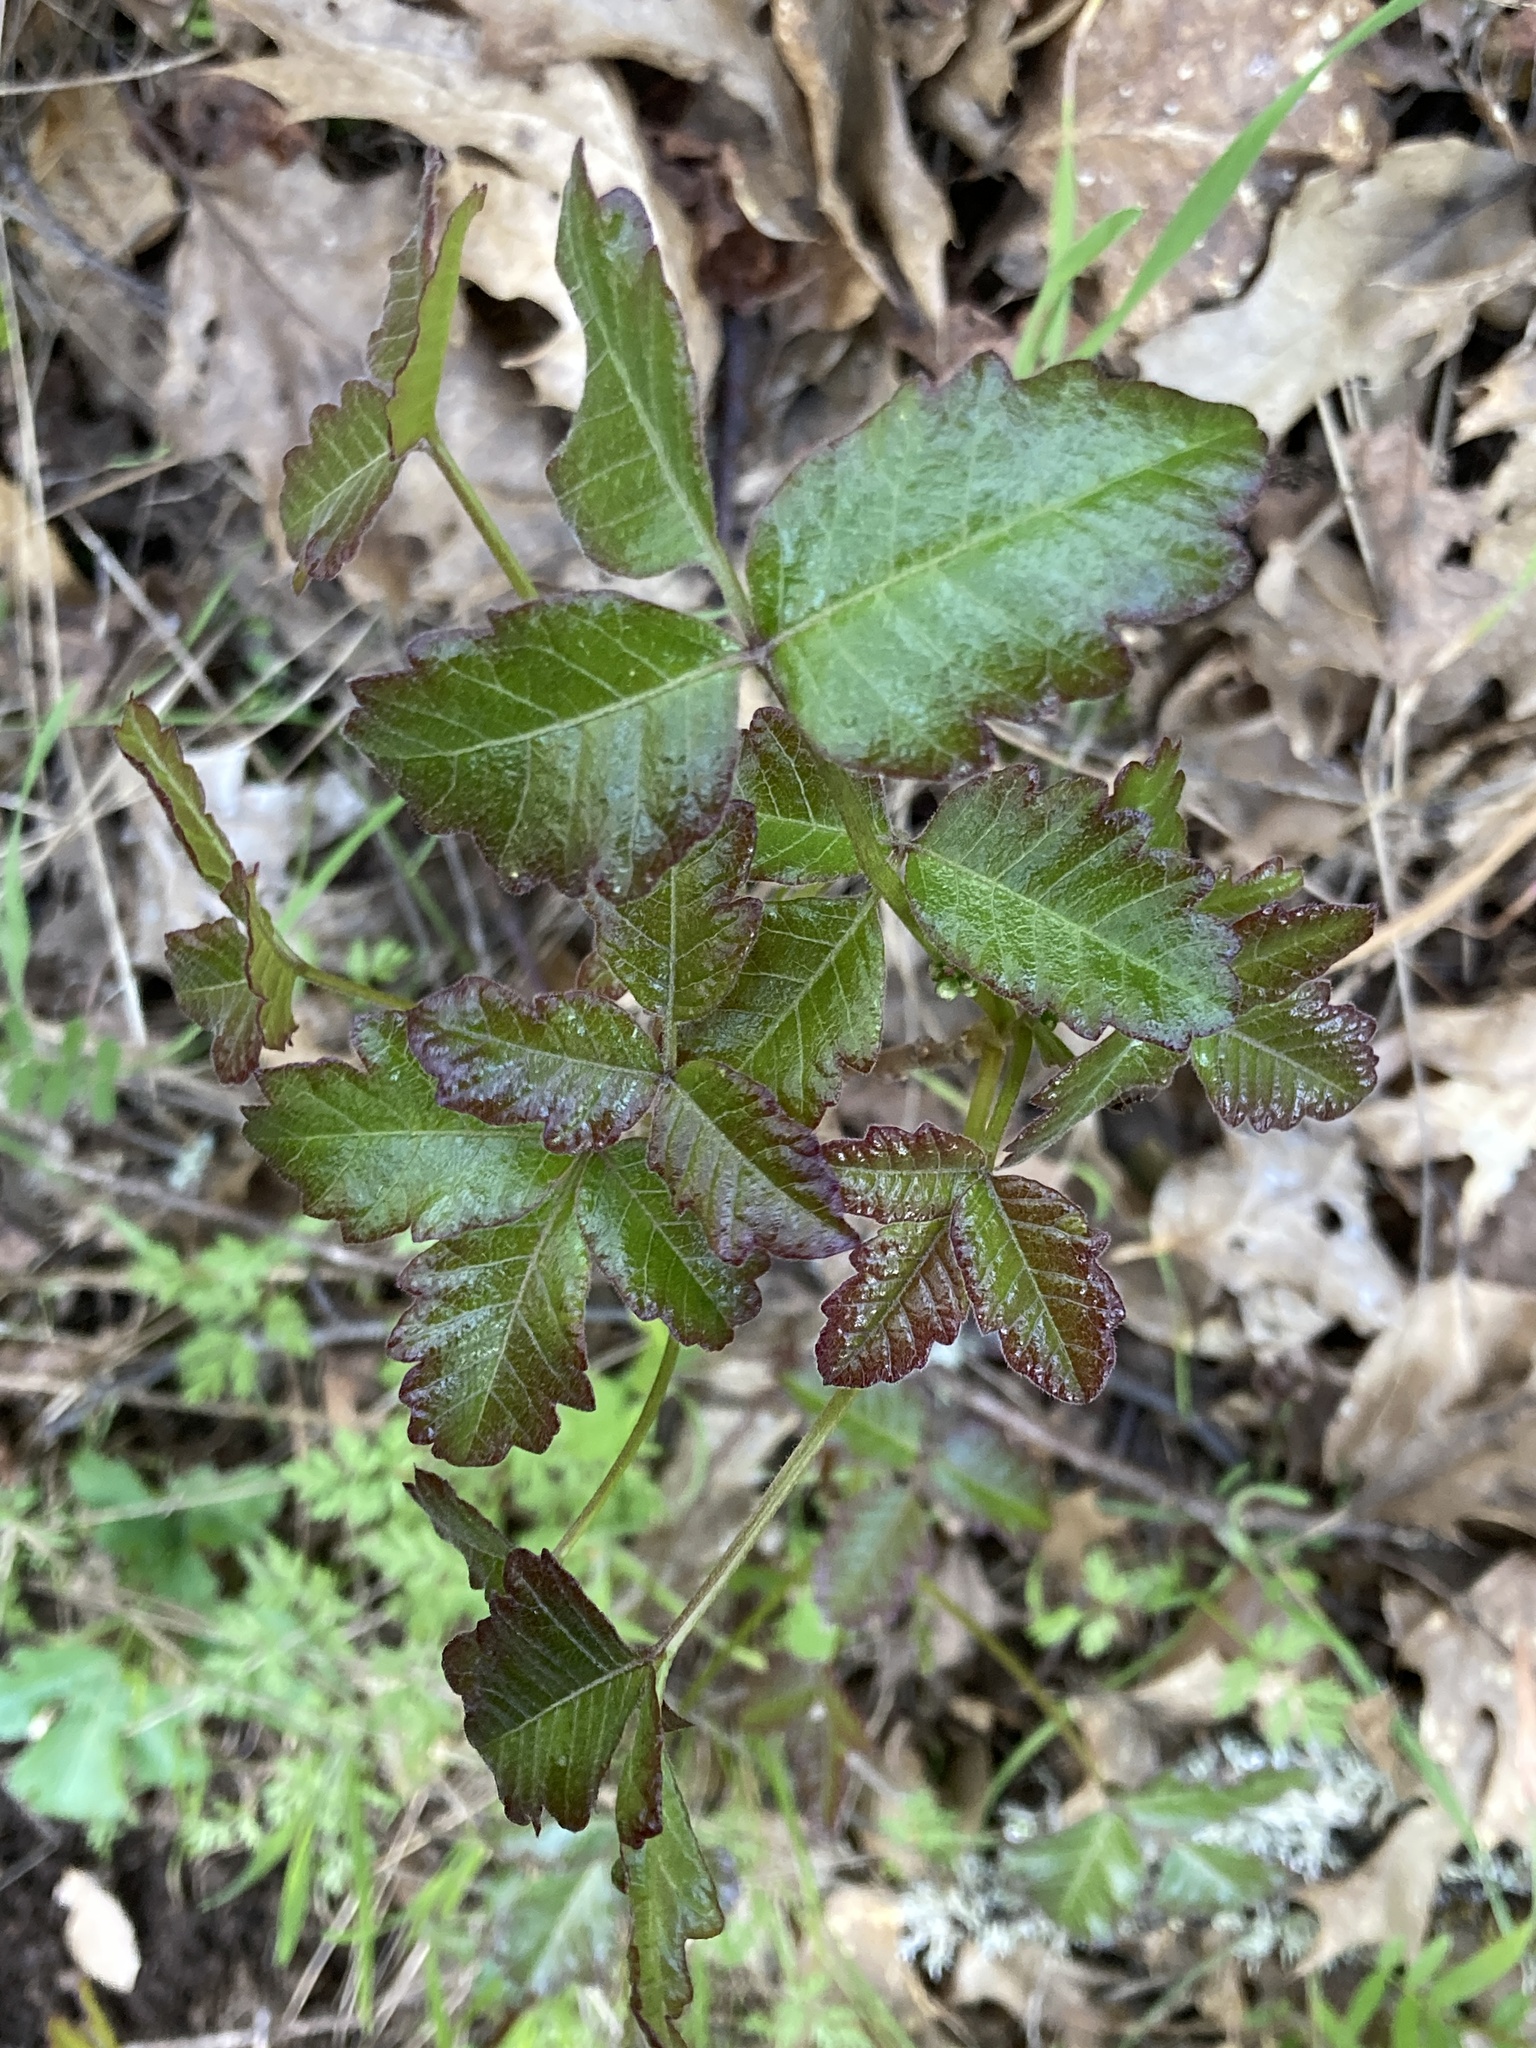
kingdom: Plantae
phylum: Tracheophyta
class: Magnoliopsida
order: Sapindales
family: Anacardiaceae
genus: Toxicodendron
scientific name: Toxicodendron diversilobum
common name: Pacific poison-oak
